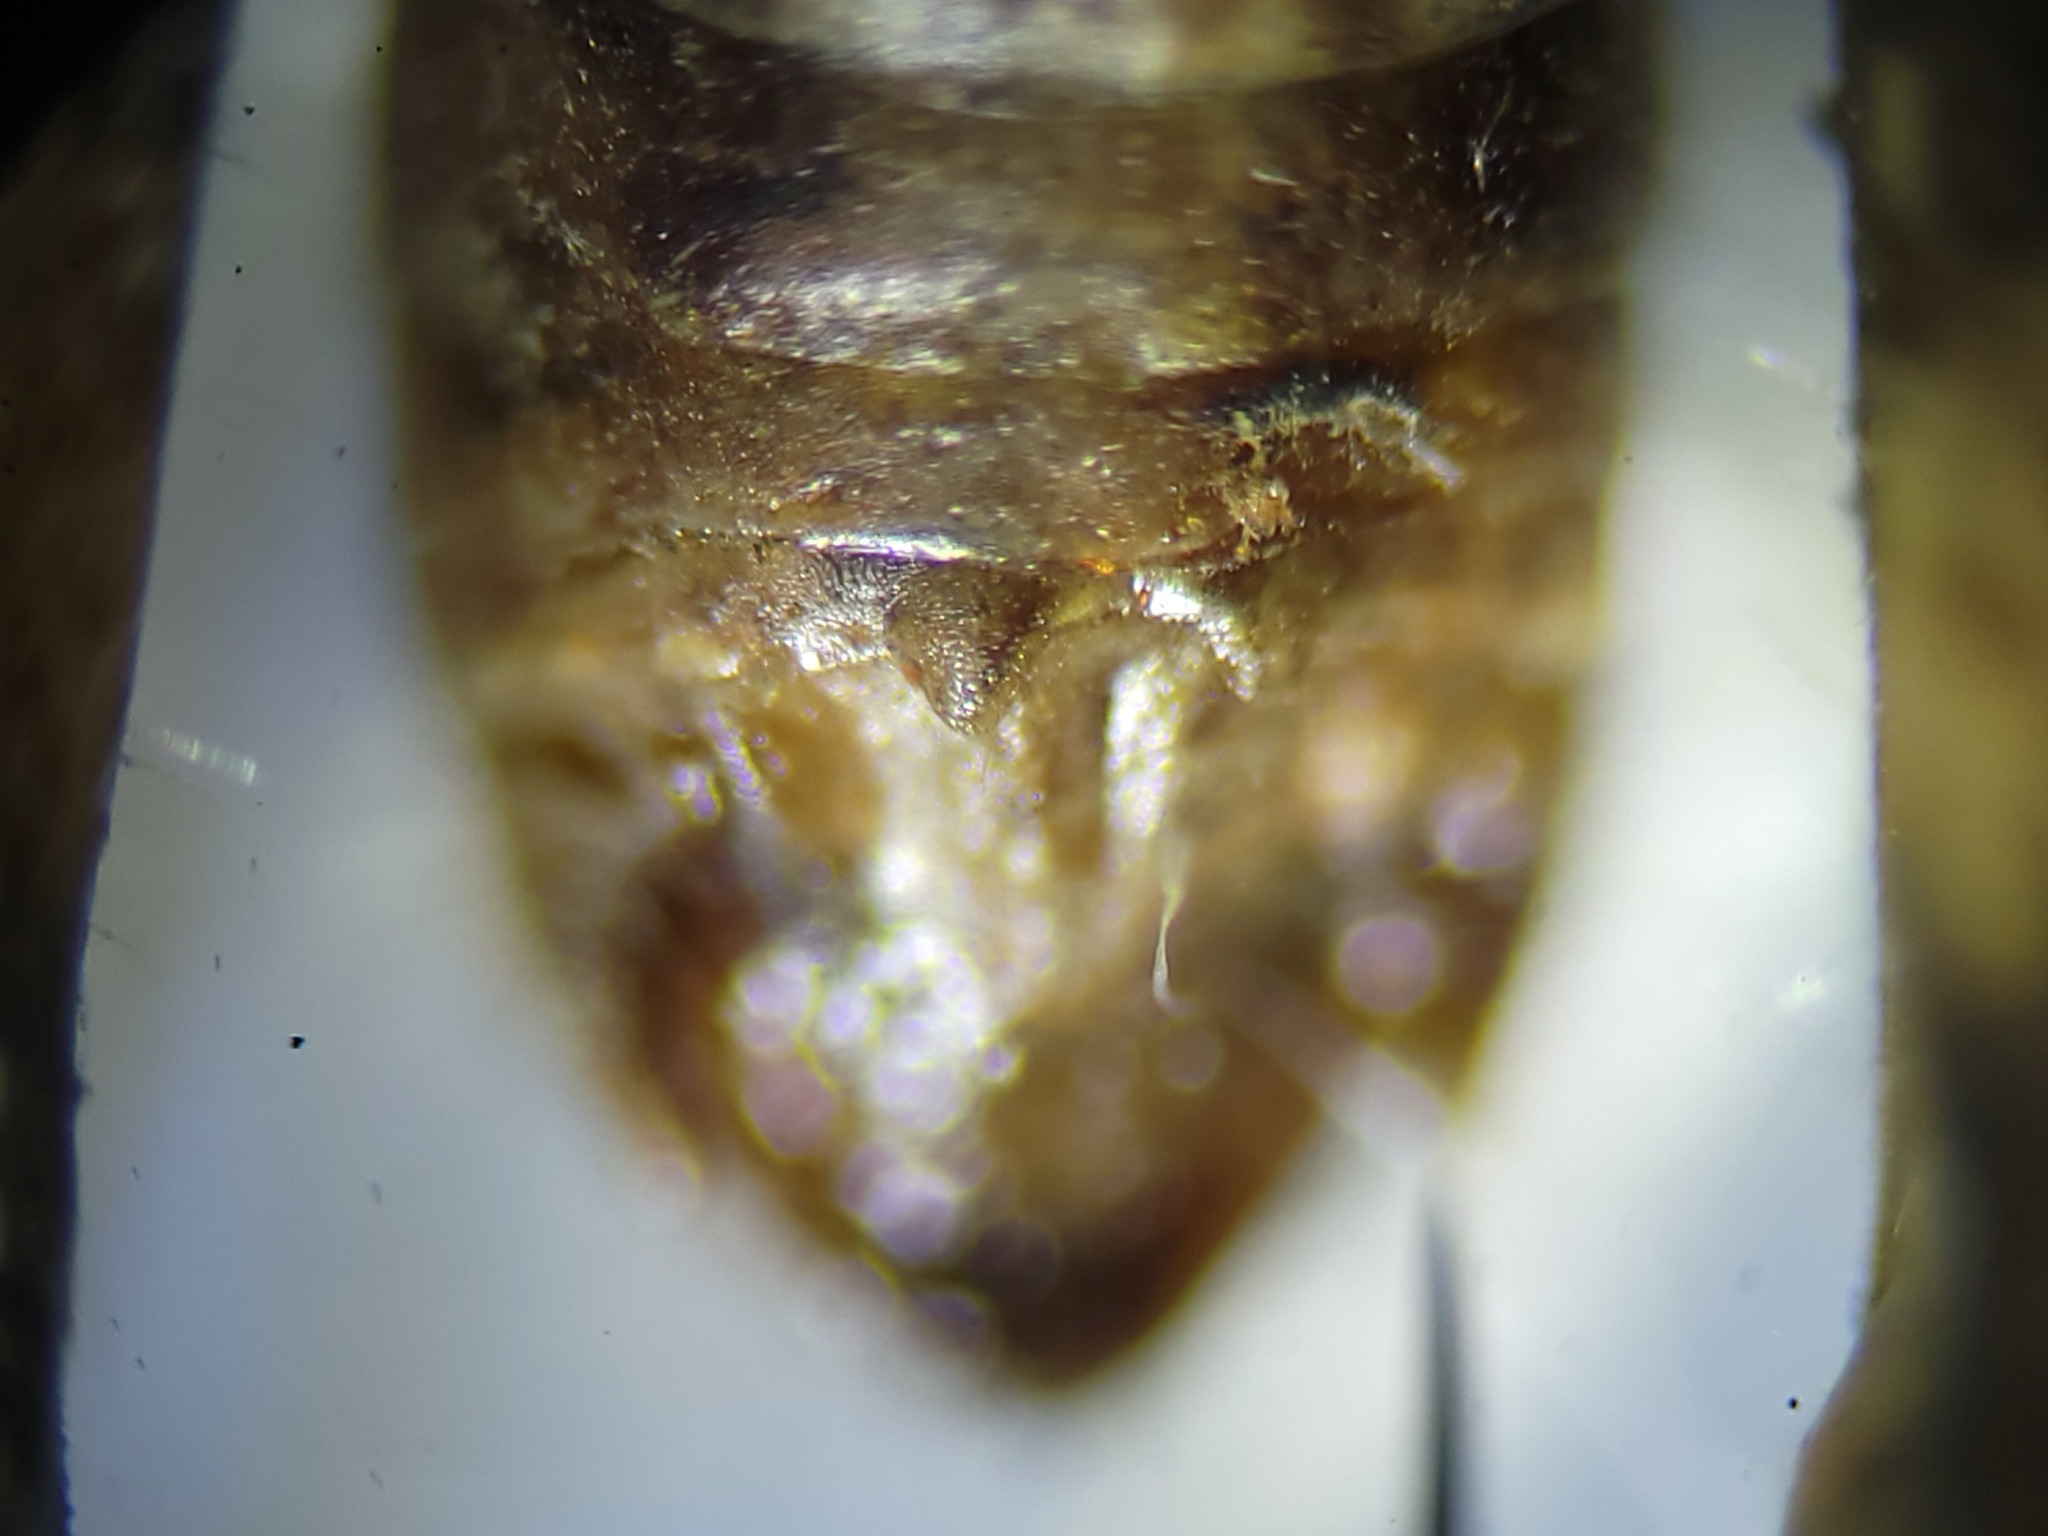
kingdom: Animalia
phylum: Arthropoda
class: Insecta
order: Orthoptera
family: Acrididae
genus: Melanoplus
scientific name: Melanoplus puer
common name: Least short-winged locust
